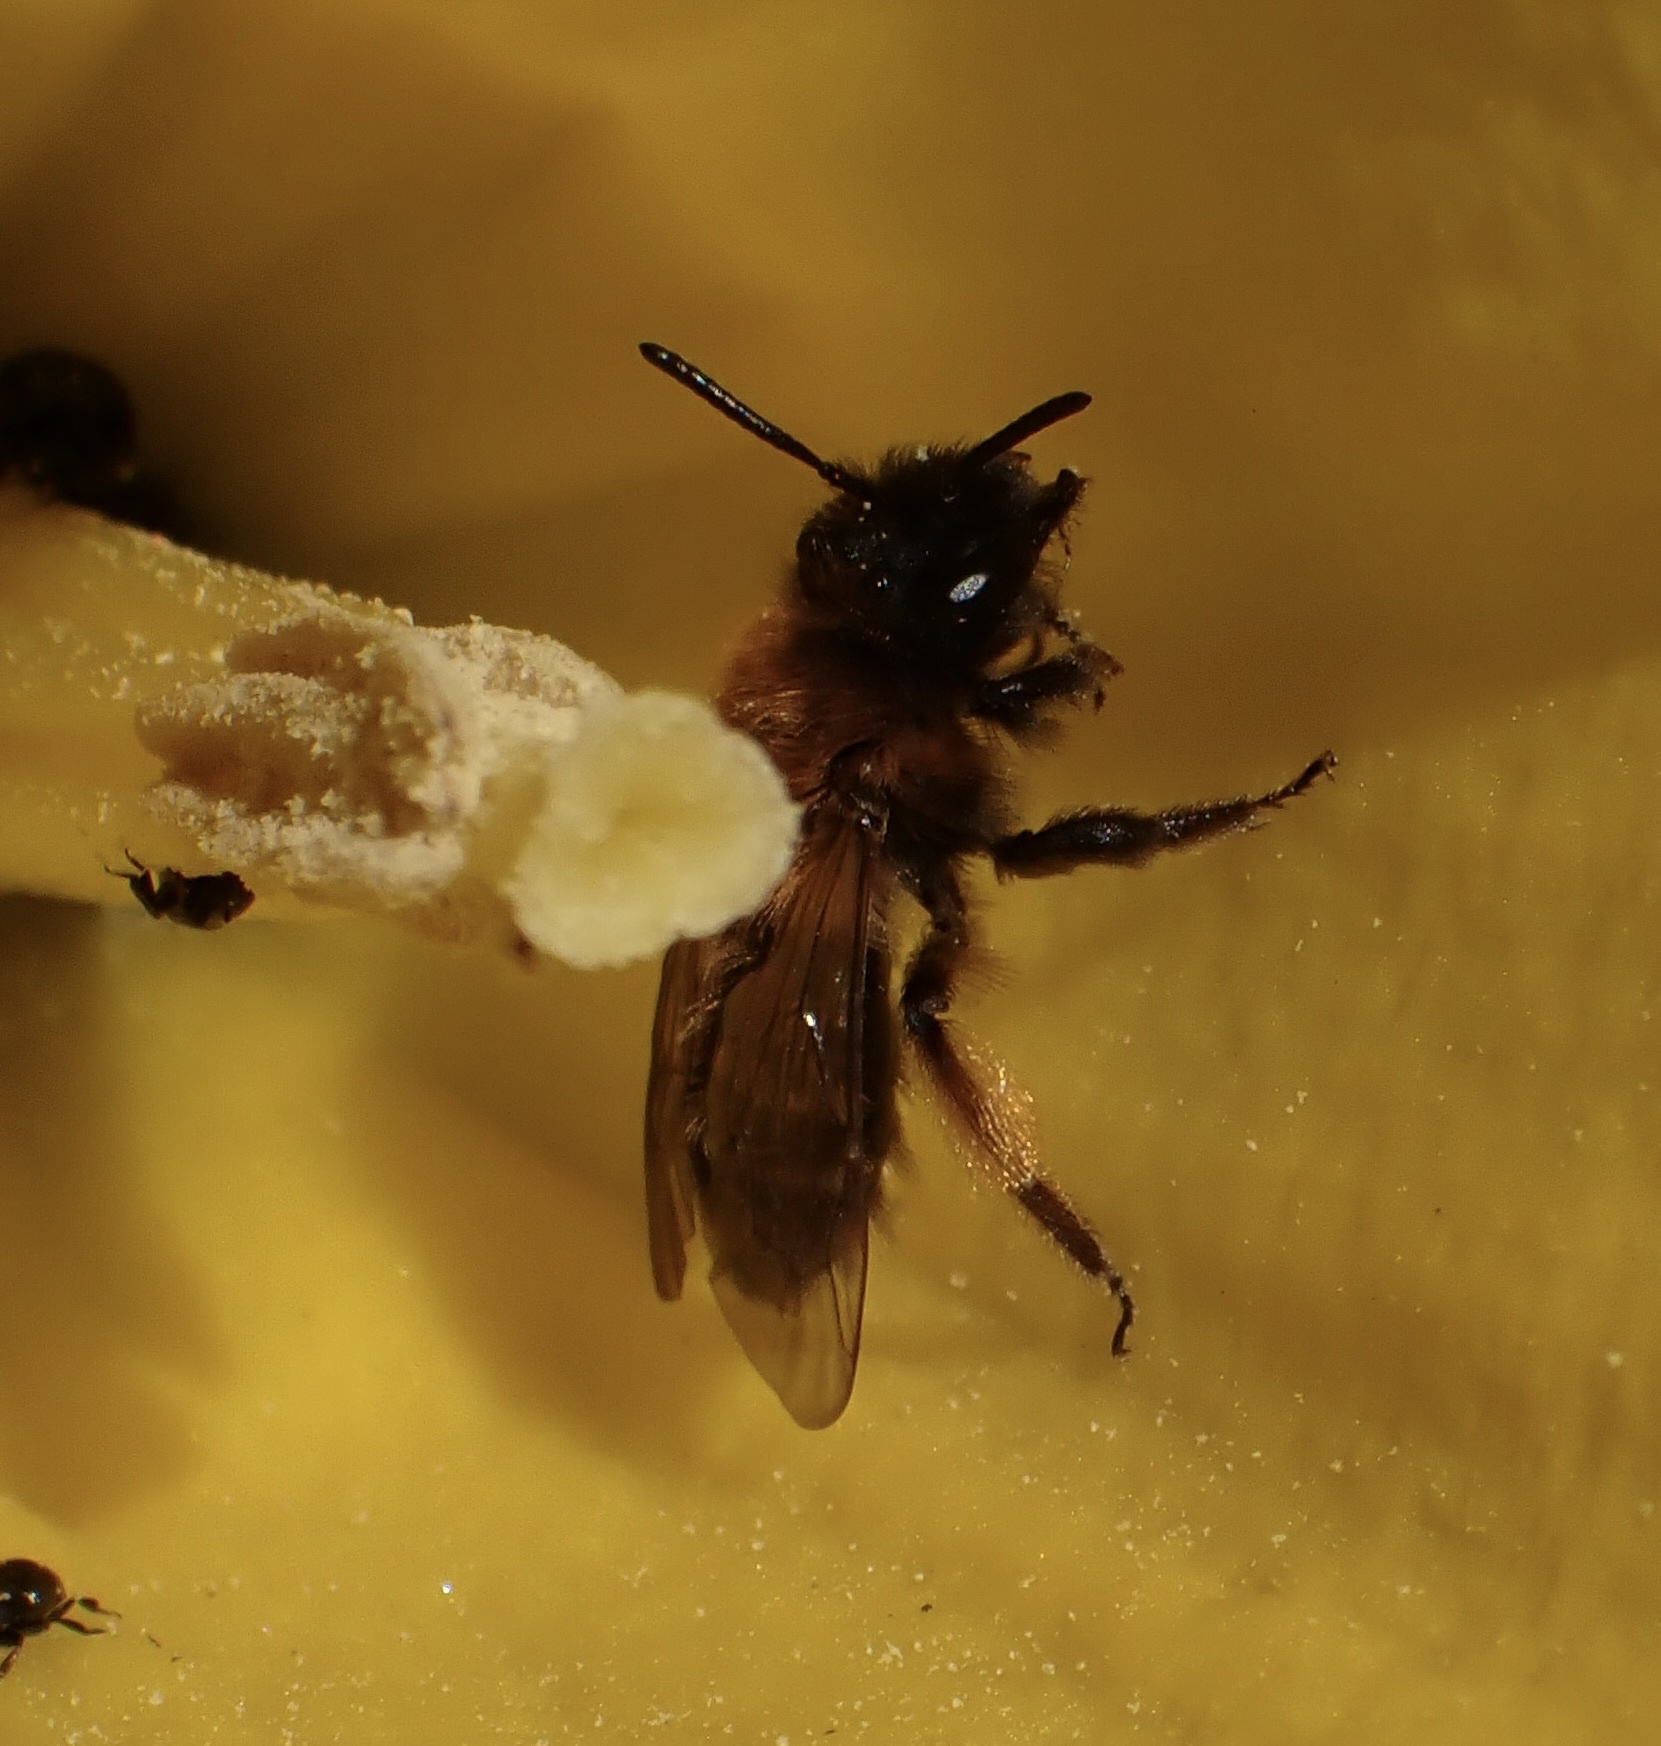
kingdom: Animalia
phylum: Arthropoda
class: Insecta
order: Hymenoptera
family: Andrenidae
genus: Andrena
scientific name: Andrena bicolor
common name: Gwynne's mining bee
